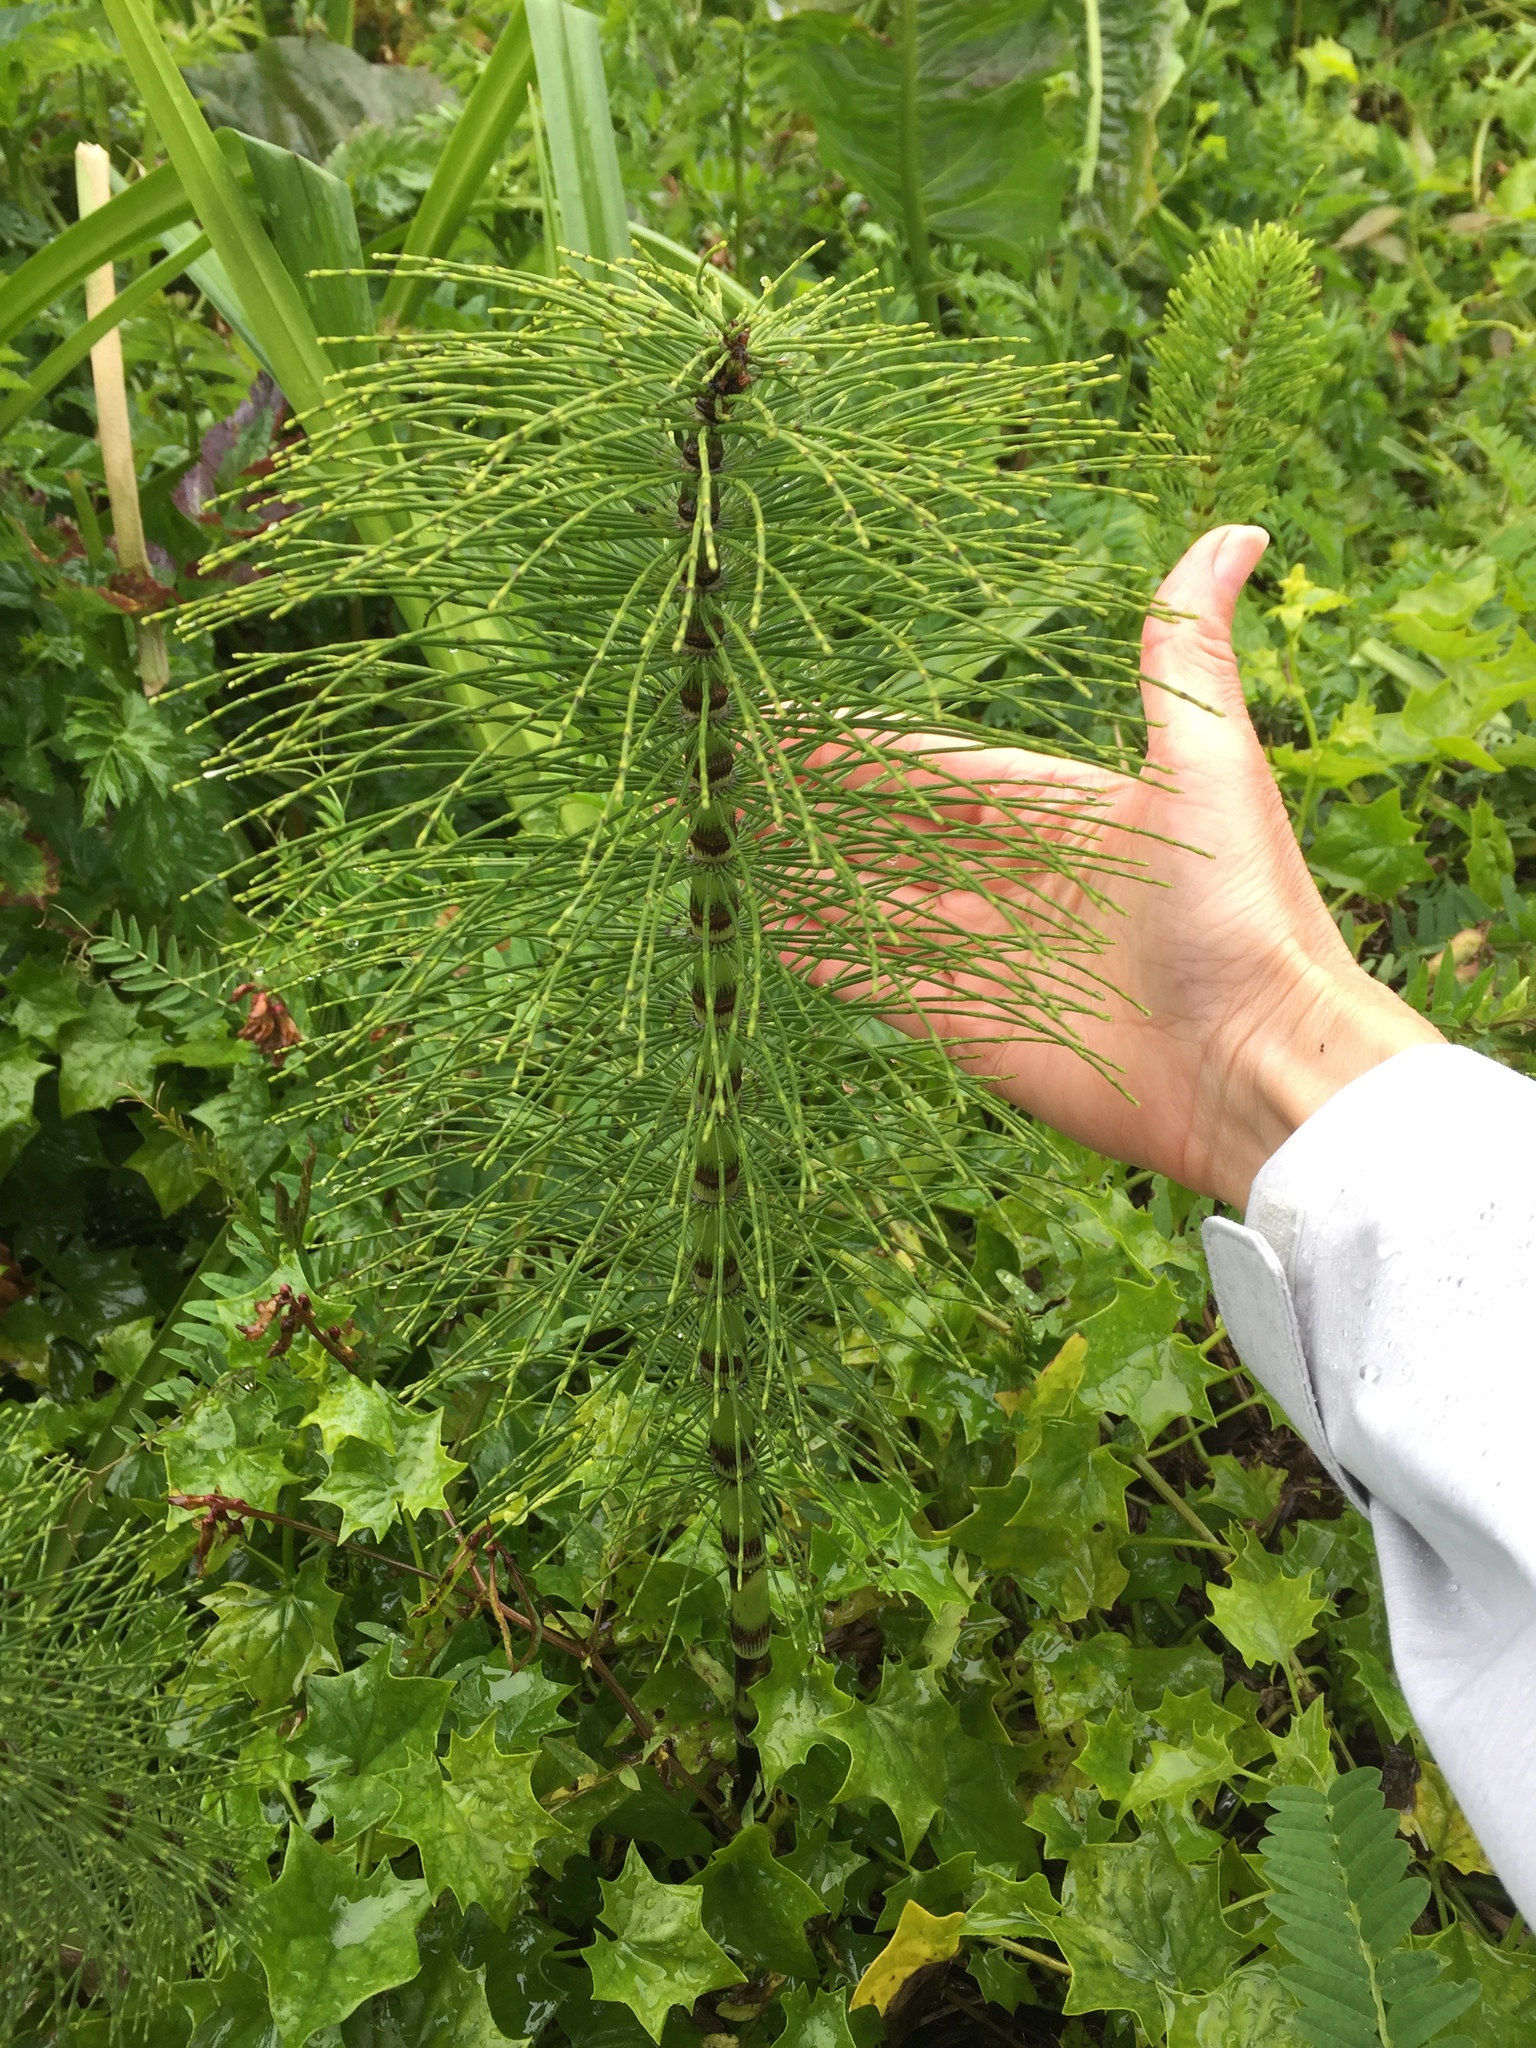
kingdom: Plantae
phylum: Tracheophyta
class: Polypodiopsida
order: Equisetales
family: Equisetaceae
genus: Equisetum
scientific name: Equisetum telmateia
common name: Great horsetail
